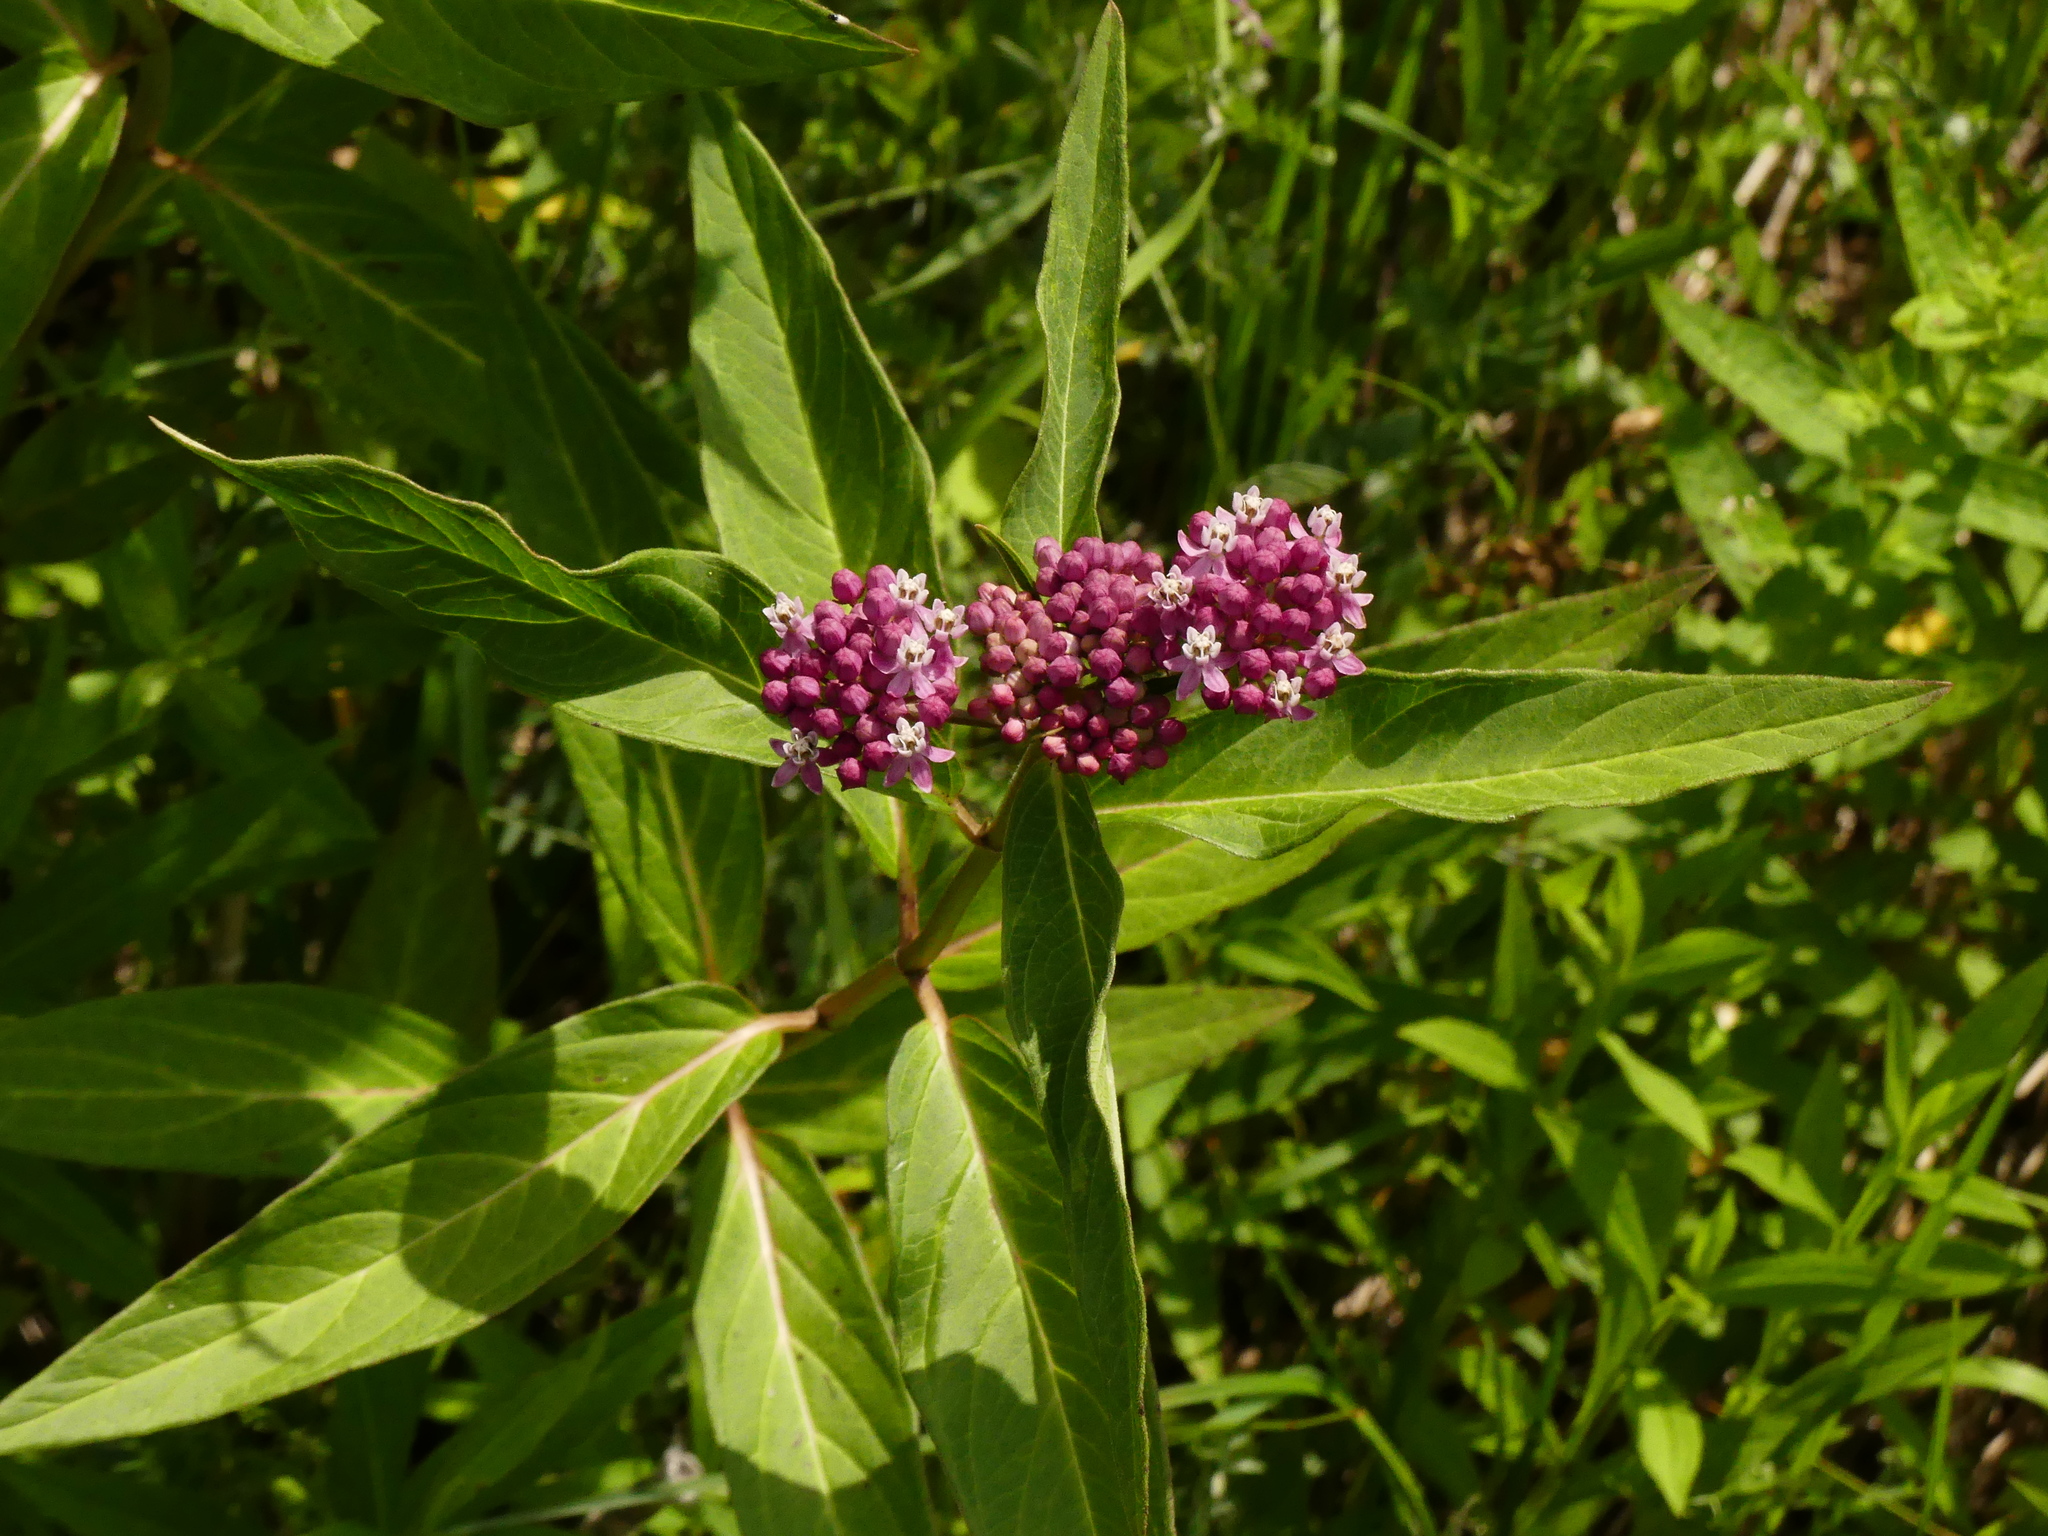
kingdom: Plantae
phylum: Tracheophyta
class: Magnoliopsida
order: Gentianales
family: Apocynaceae
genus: Asclepias
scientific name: Asclepias incarnata
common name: Swamp milkweed
